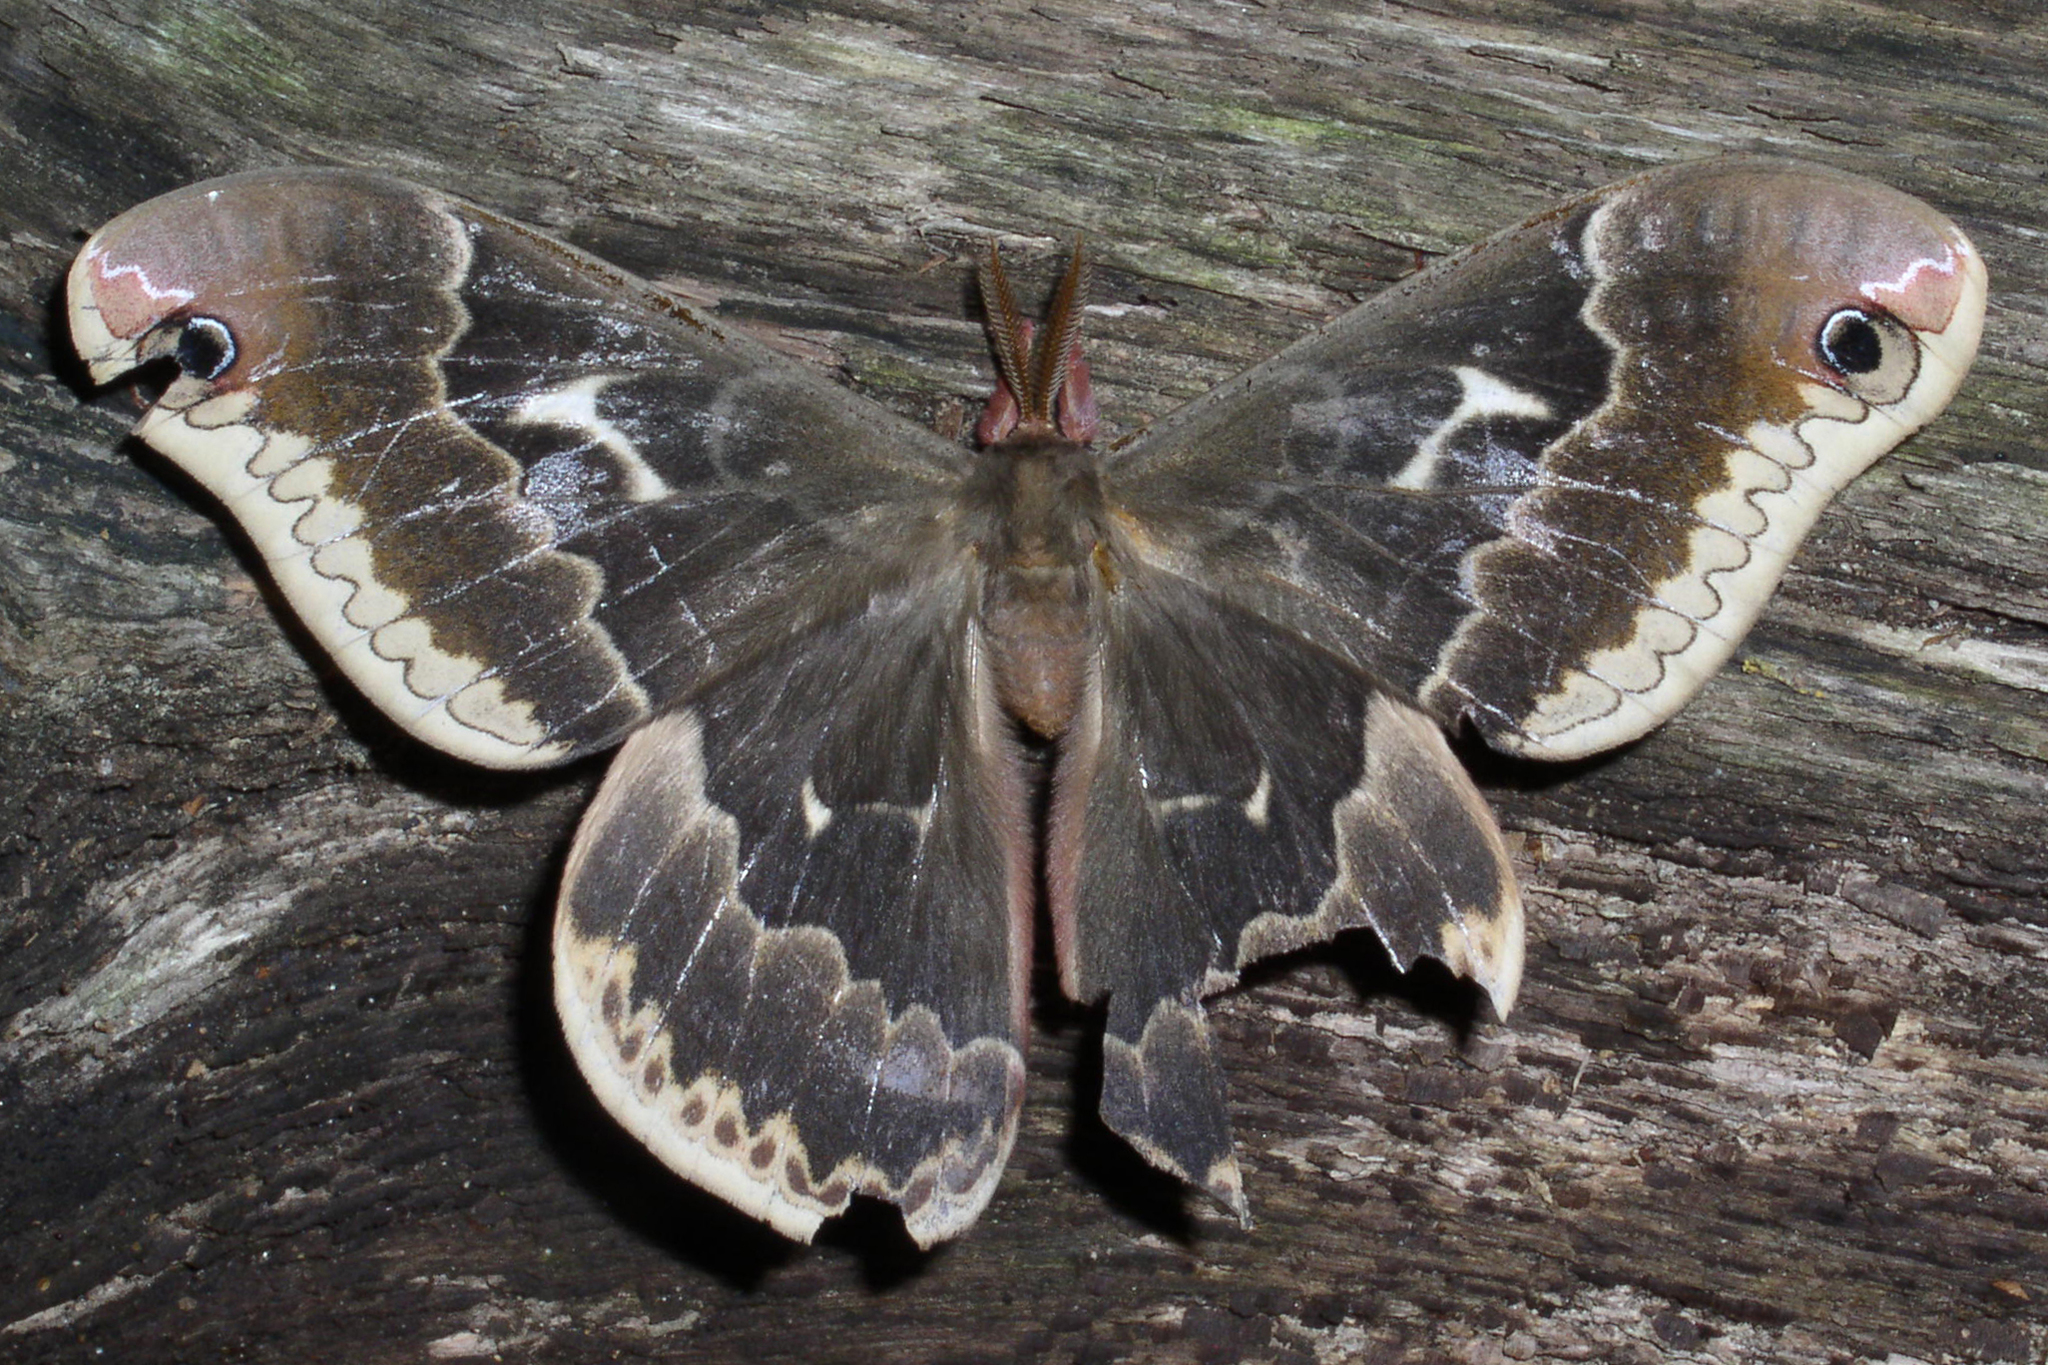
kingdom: Animalia
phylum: Arthropoda
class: Insecta
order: Lepidoptera
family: Saturniidae
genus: Callosamia
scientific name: Callosamia angulifera
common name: Tulip tree silkmoth
